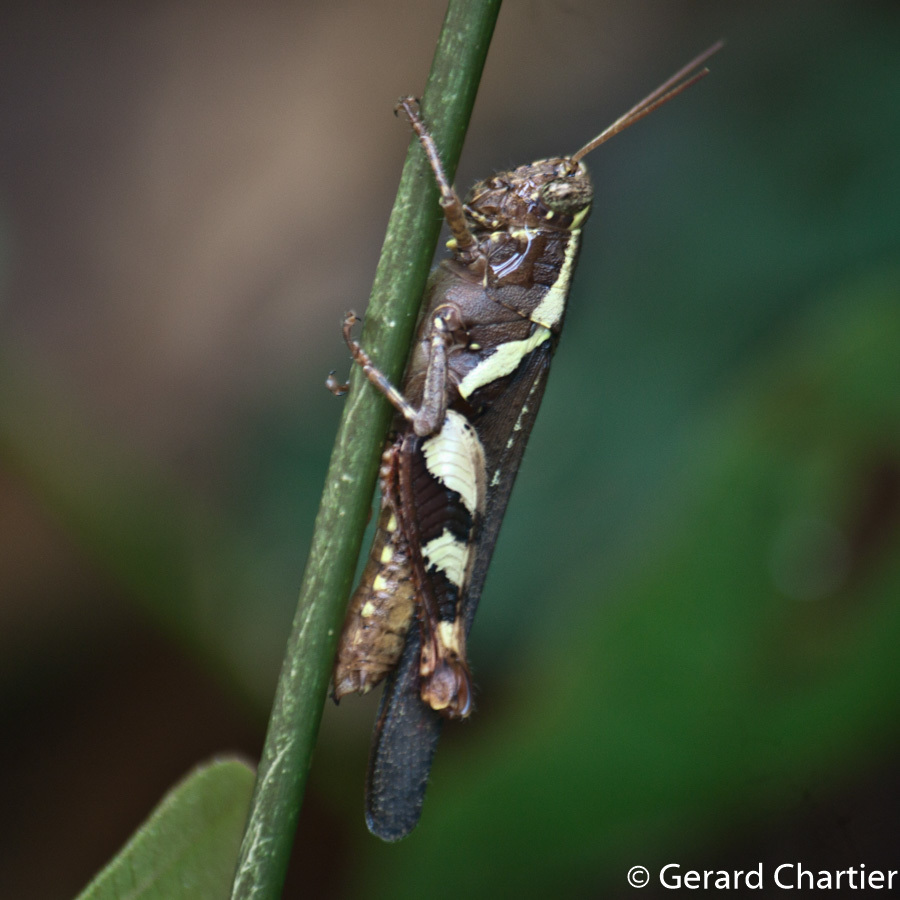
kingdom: Animalia
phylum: Arthropoda
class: Insecta
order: Orthoptera
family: Acrididae
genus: Xenocatantops
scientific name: Xenocatantops humile
